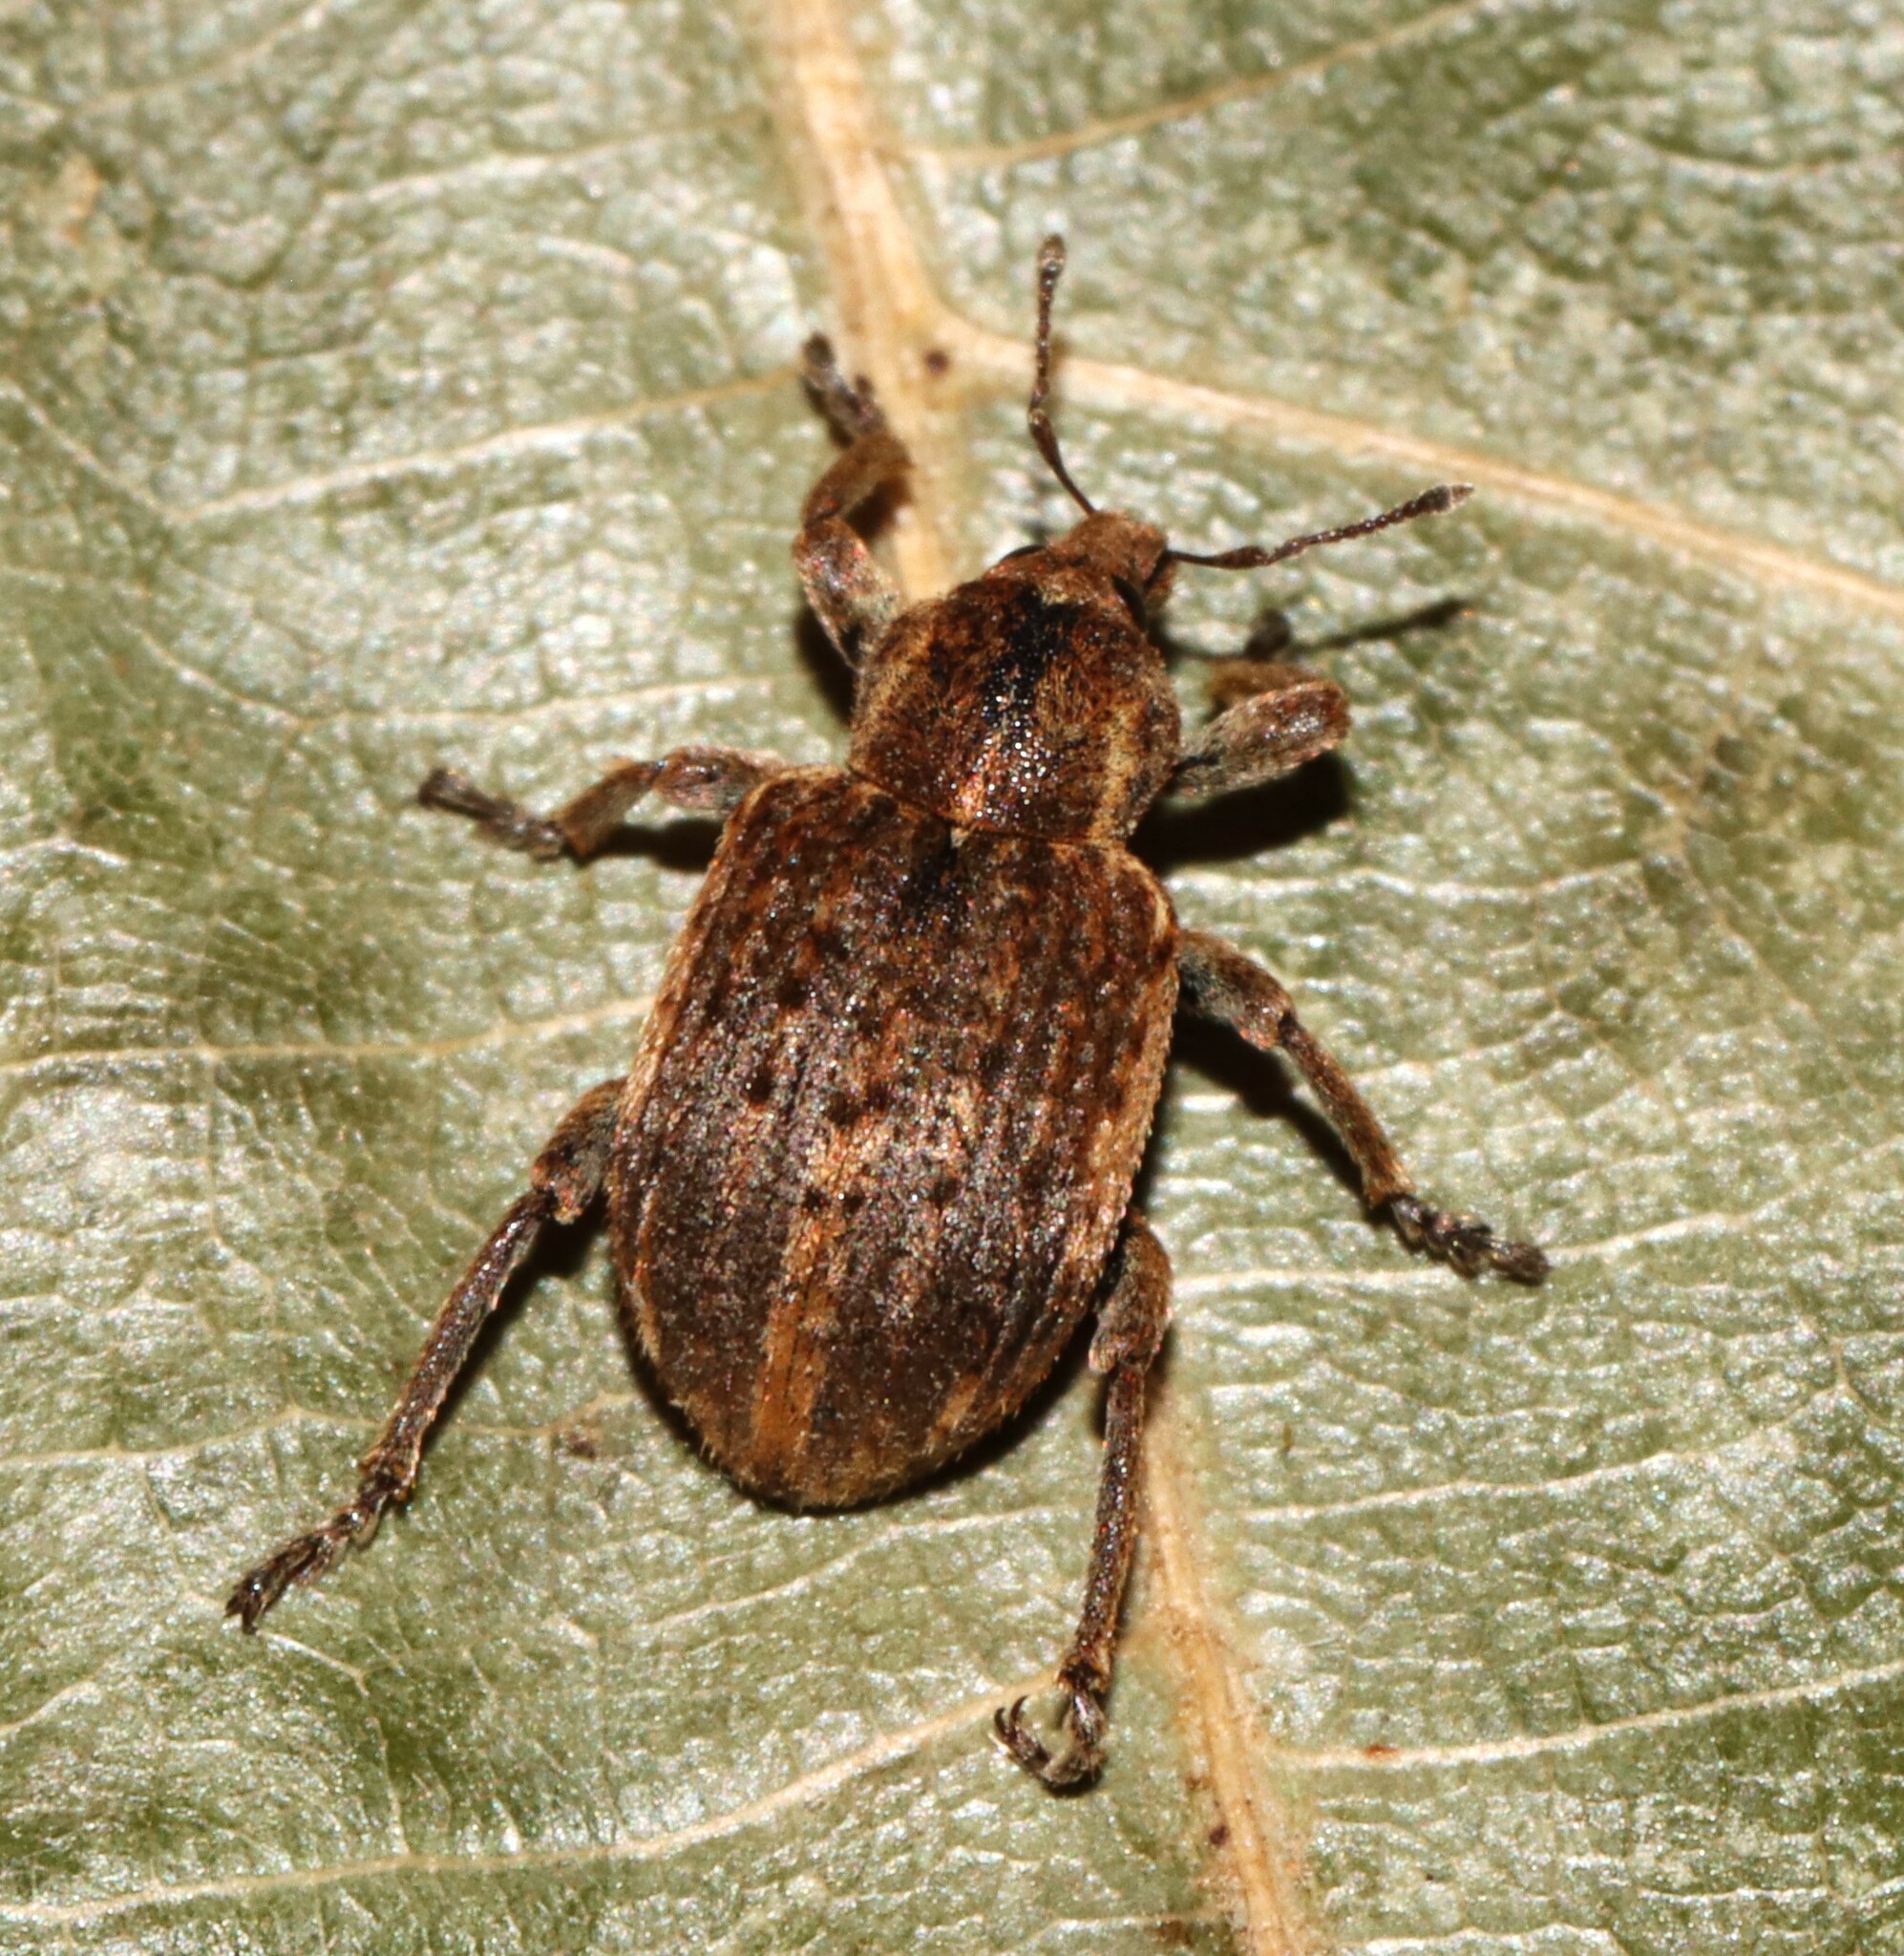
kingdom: Animalia
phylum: Arthropoda
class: Insecta
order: Coleoptera
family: Curculionidae
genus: Brachypera
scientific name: Brachypera zoilus
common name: Clover leaf weevil
